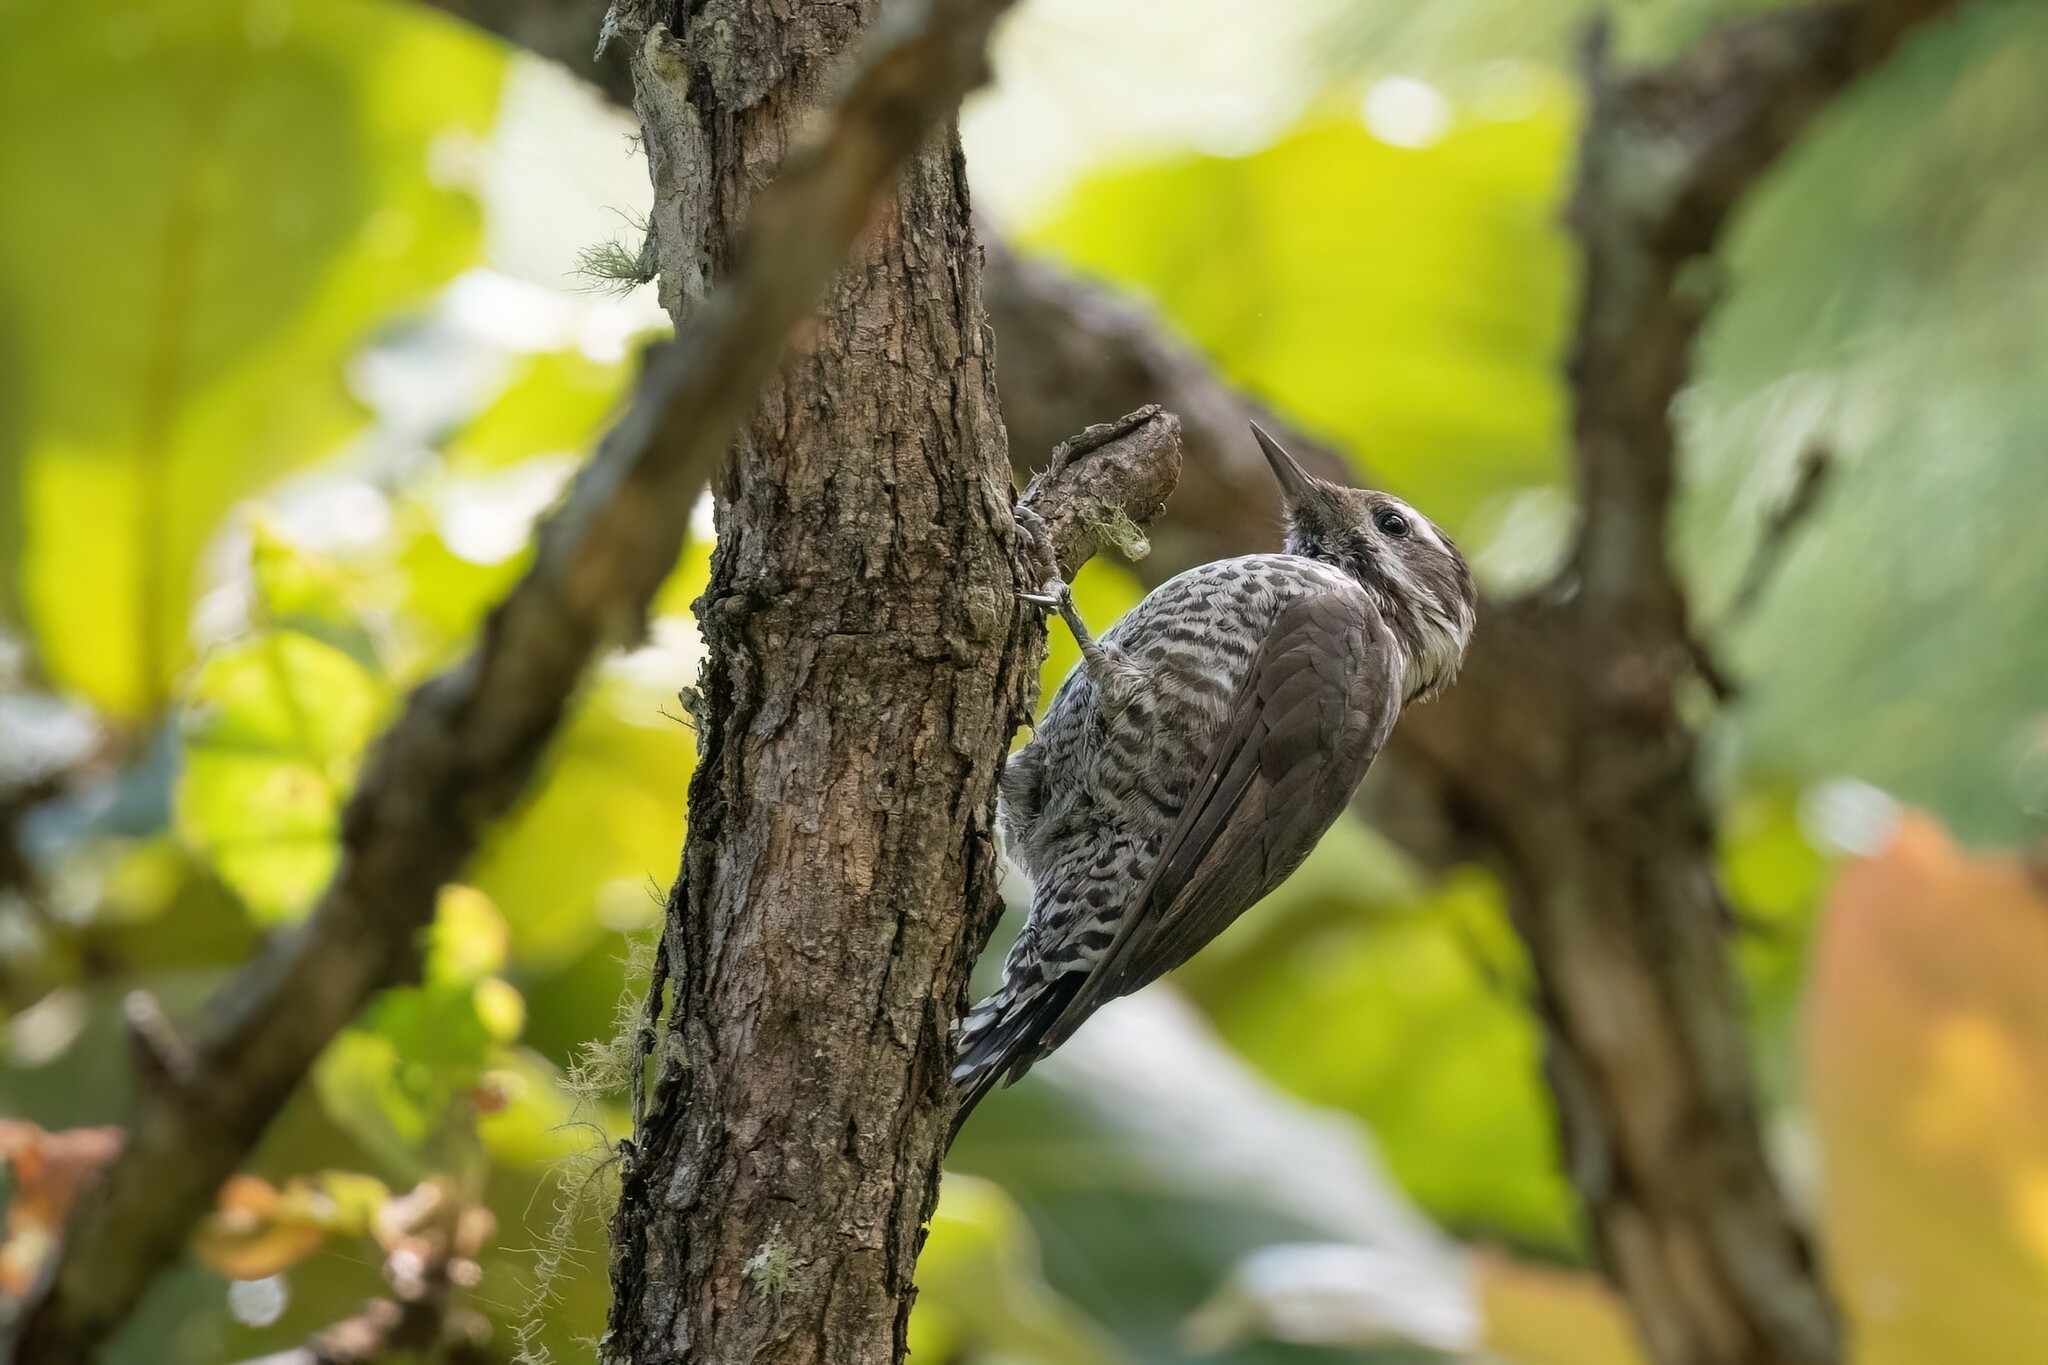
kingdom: Animalia
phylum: Chordata
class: Aves
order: Piciformes
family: Picidae
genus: Leuconotopicus
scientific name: Leuconotopicus arizonae
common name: Arizona woodpecker
